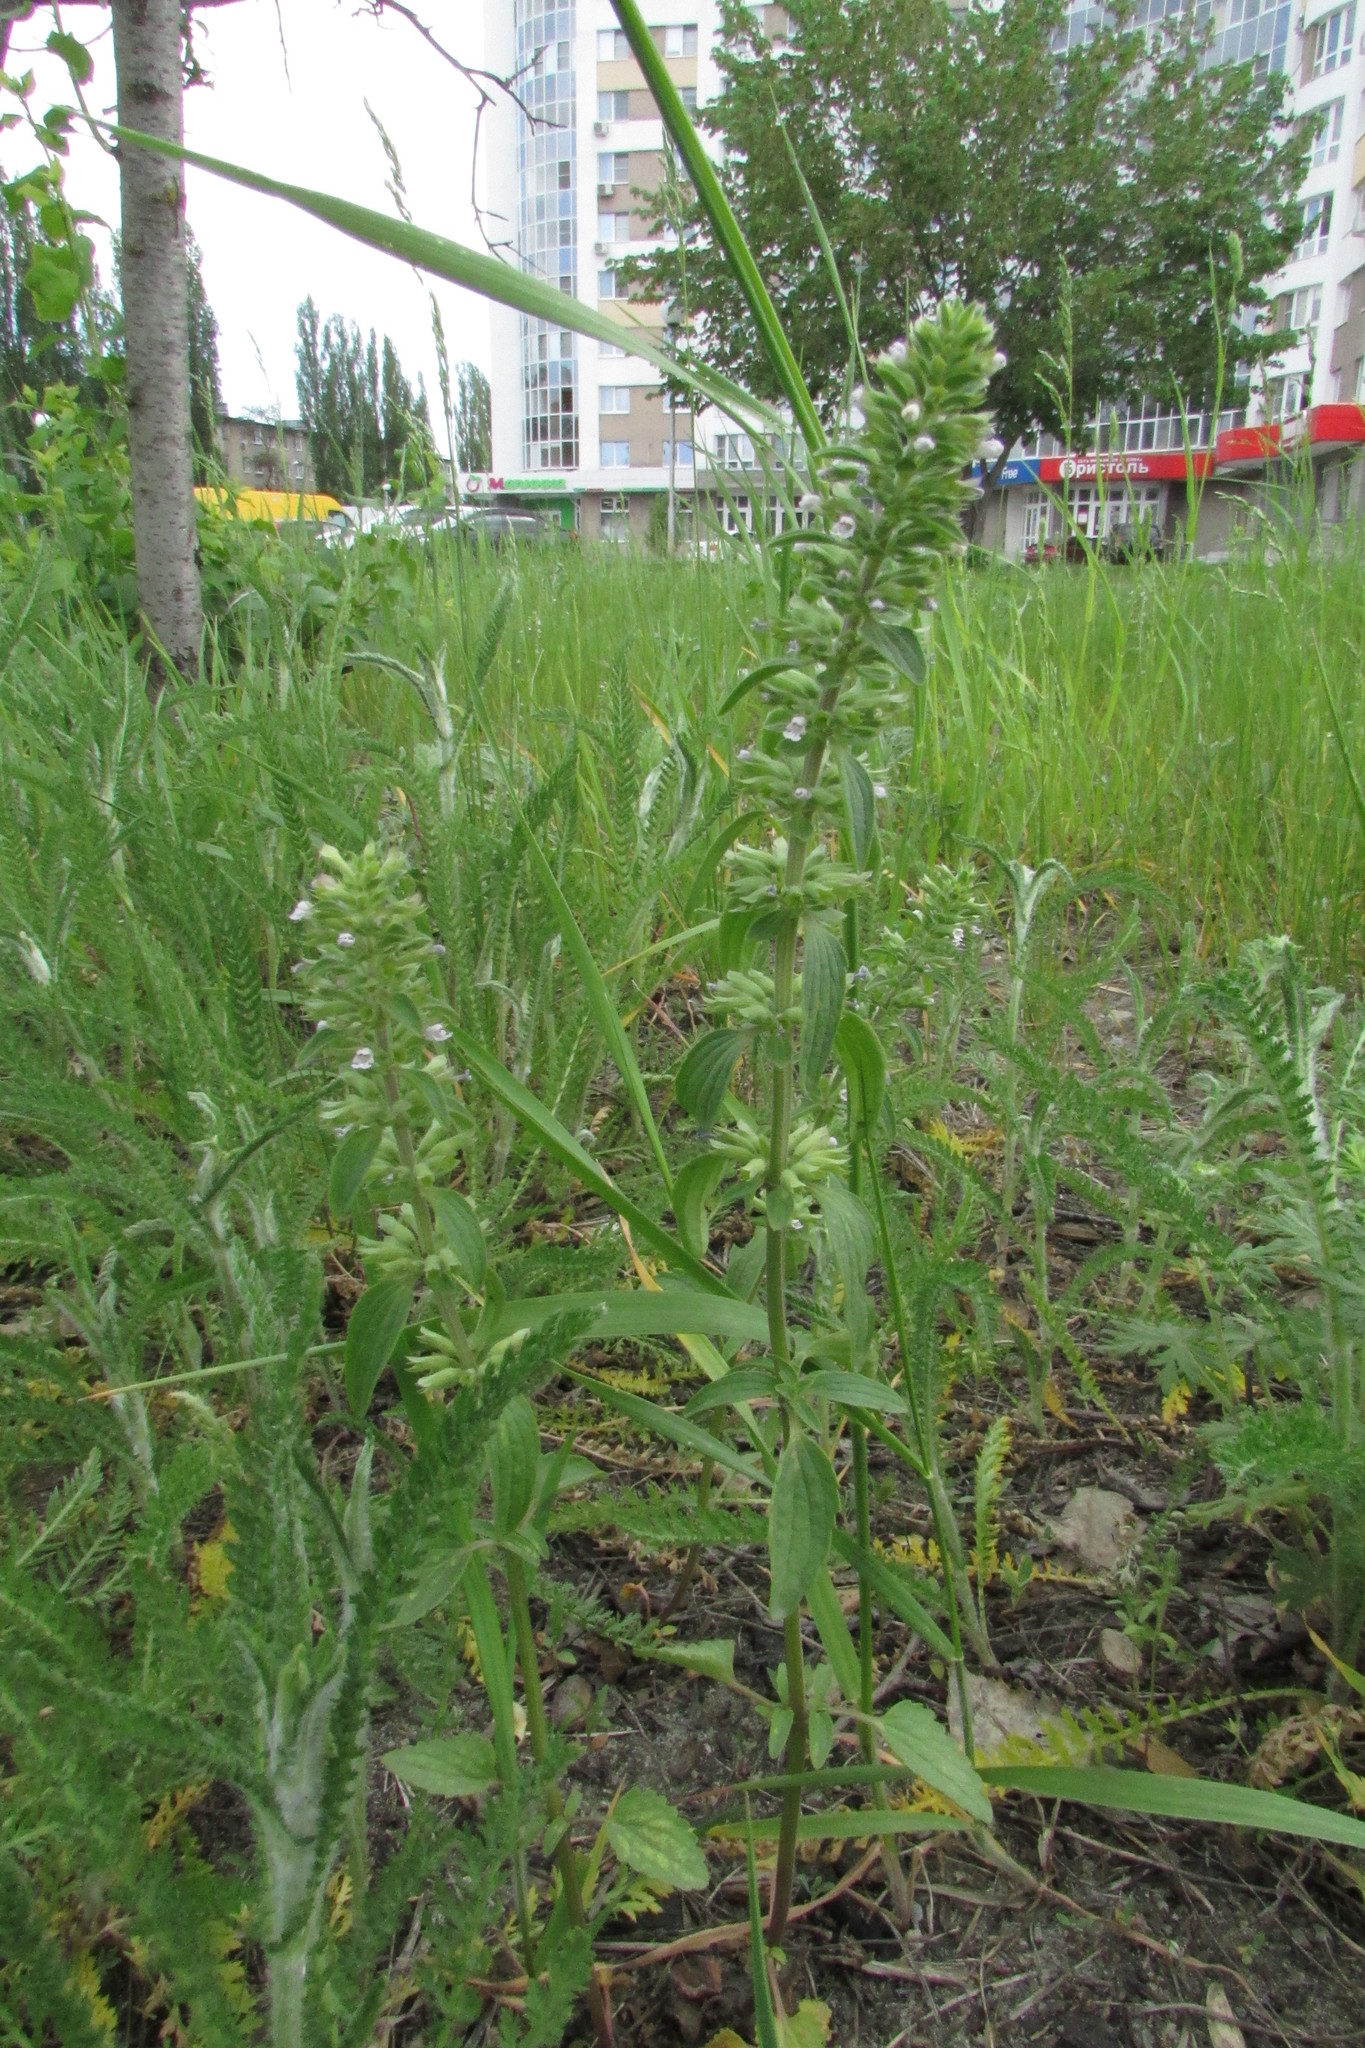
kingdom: Plantae
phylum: Tracheophyta
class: Magnoliopsida
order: Lamiales
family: Lamiaceae
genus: Dracocephalum
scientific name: Dracocephalum thymiflorum
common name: Thymeleaf dragonhead
